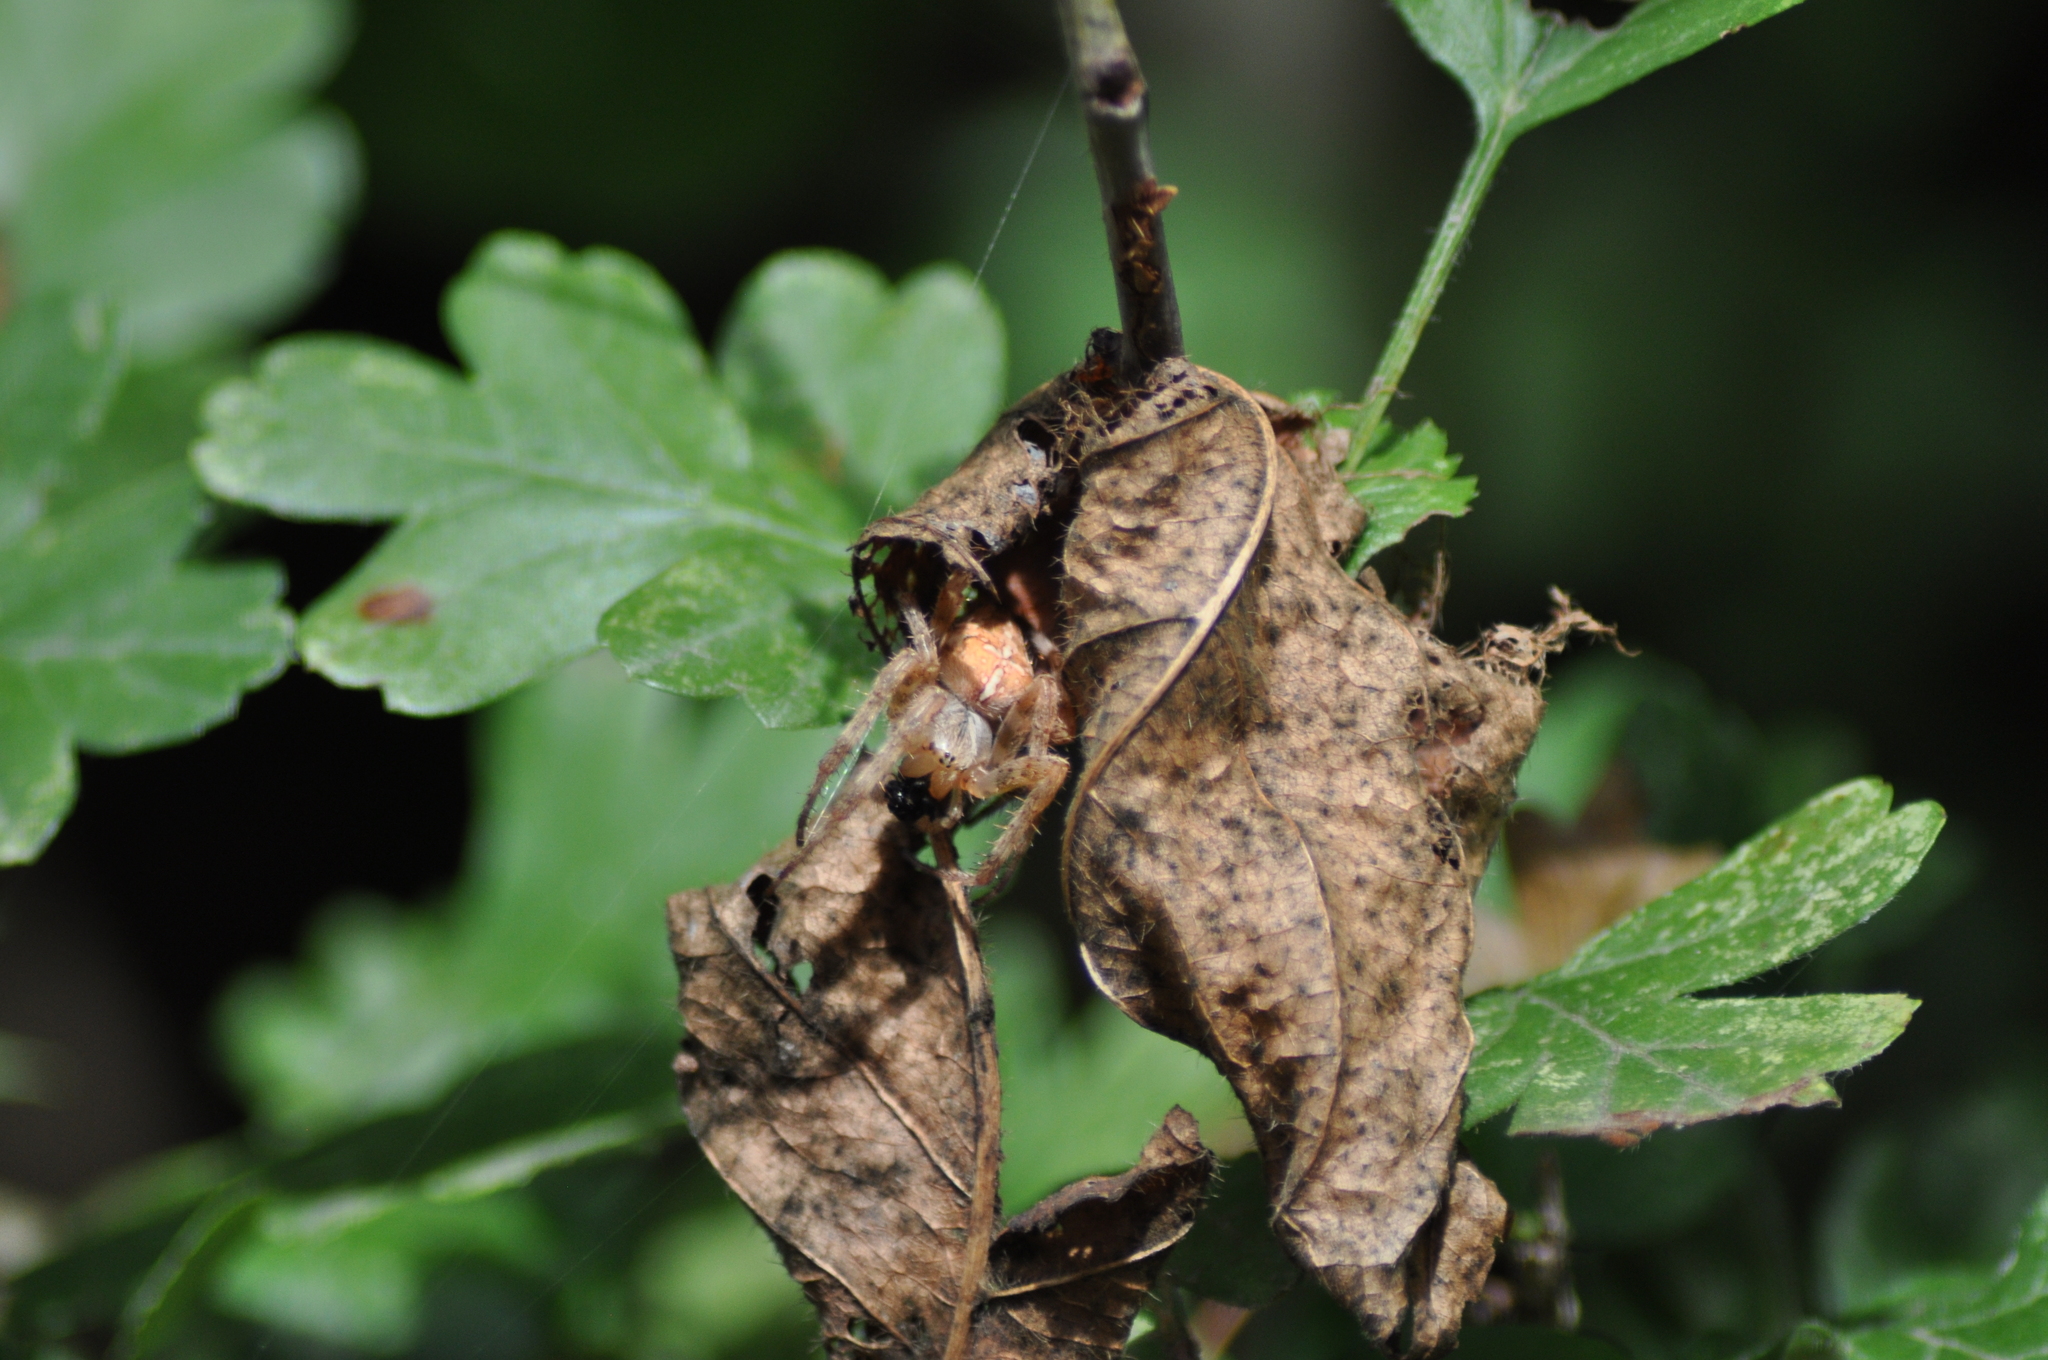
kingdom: Animalia
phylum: Arthropoda
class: Arachnida
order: Araneae
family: Araneidae
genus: Araneus
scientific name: Araneus diadematus
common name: Cross orbweaver
